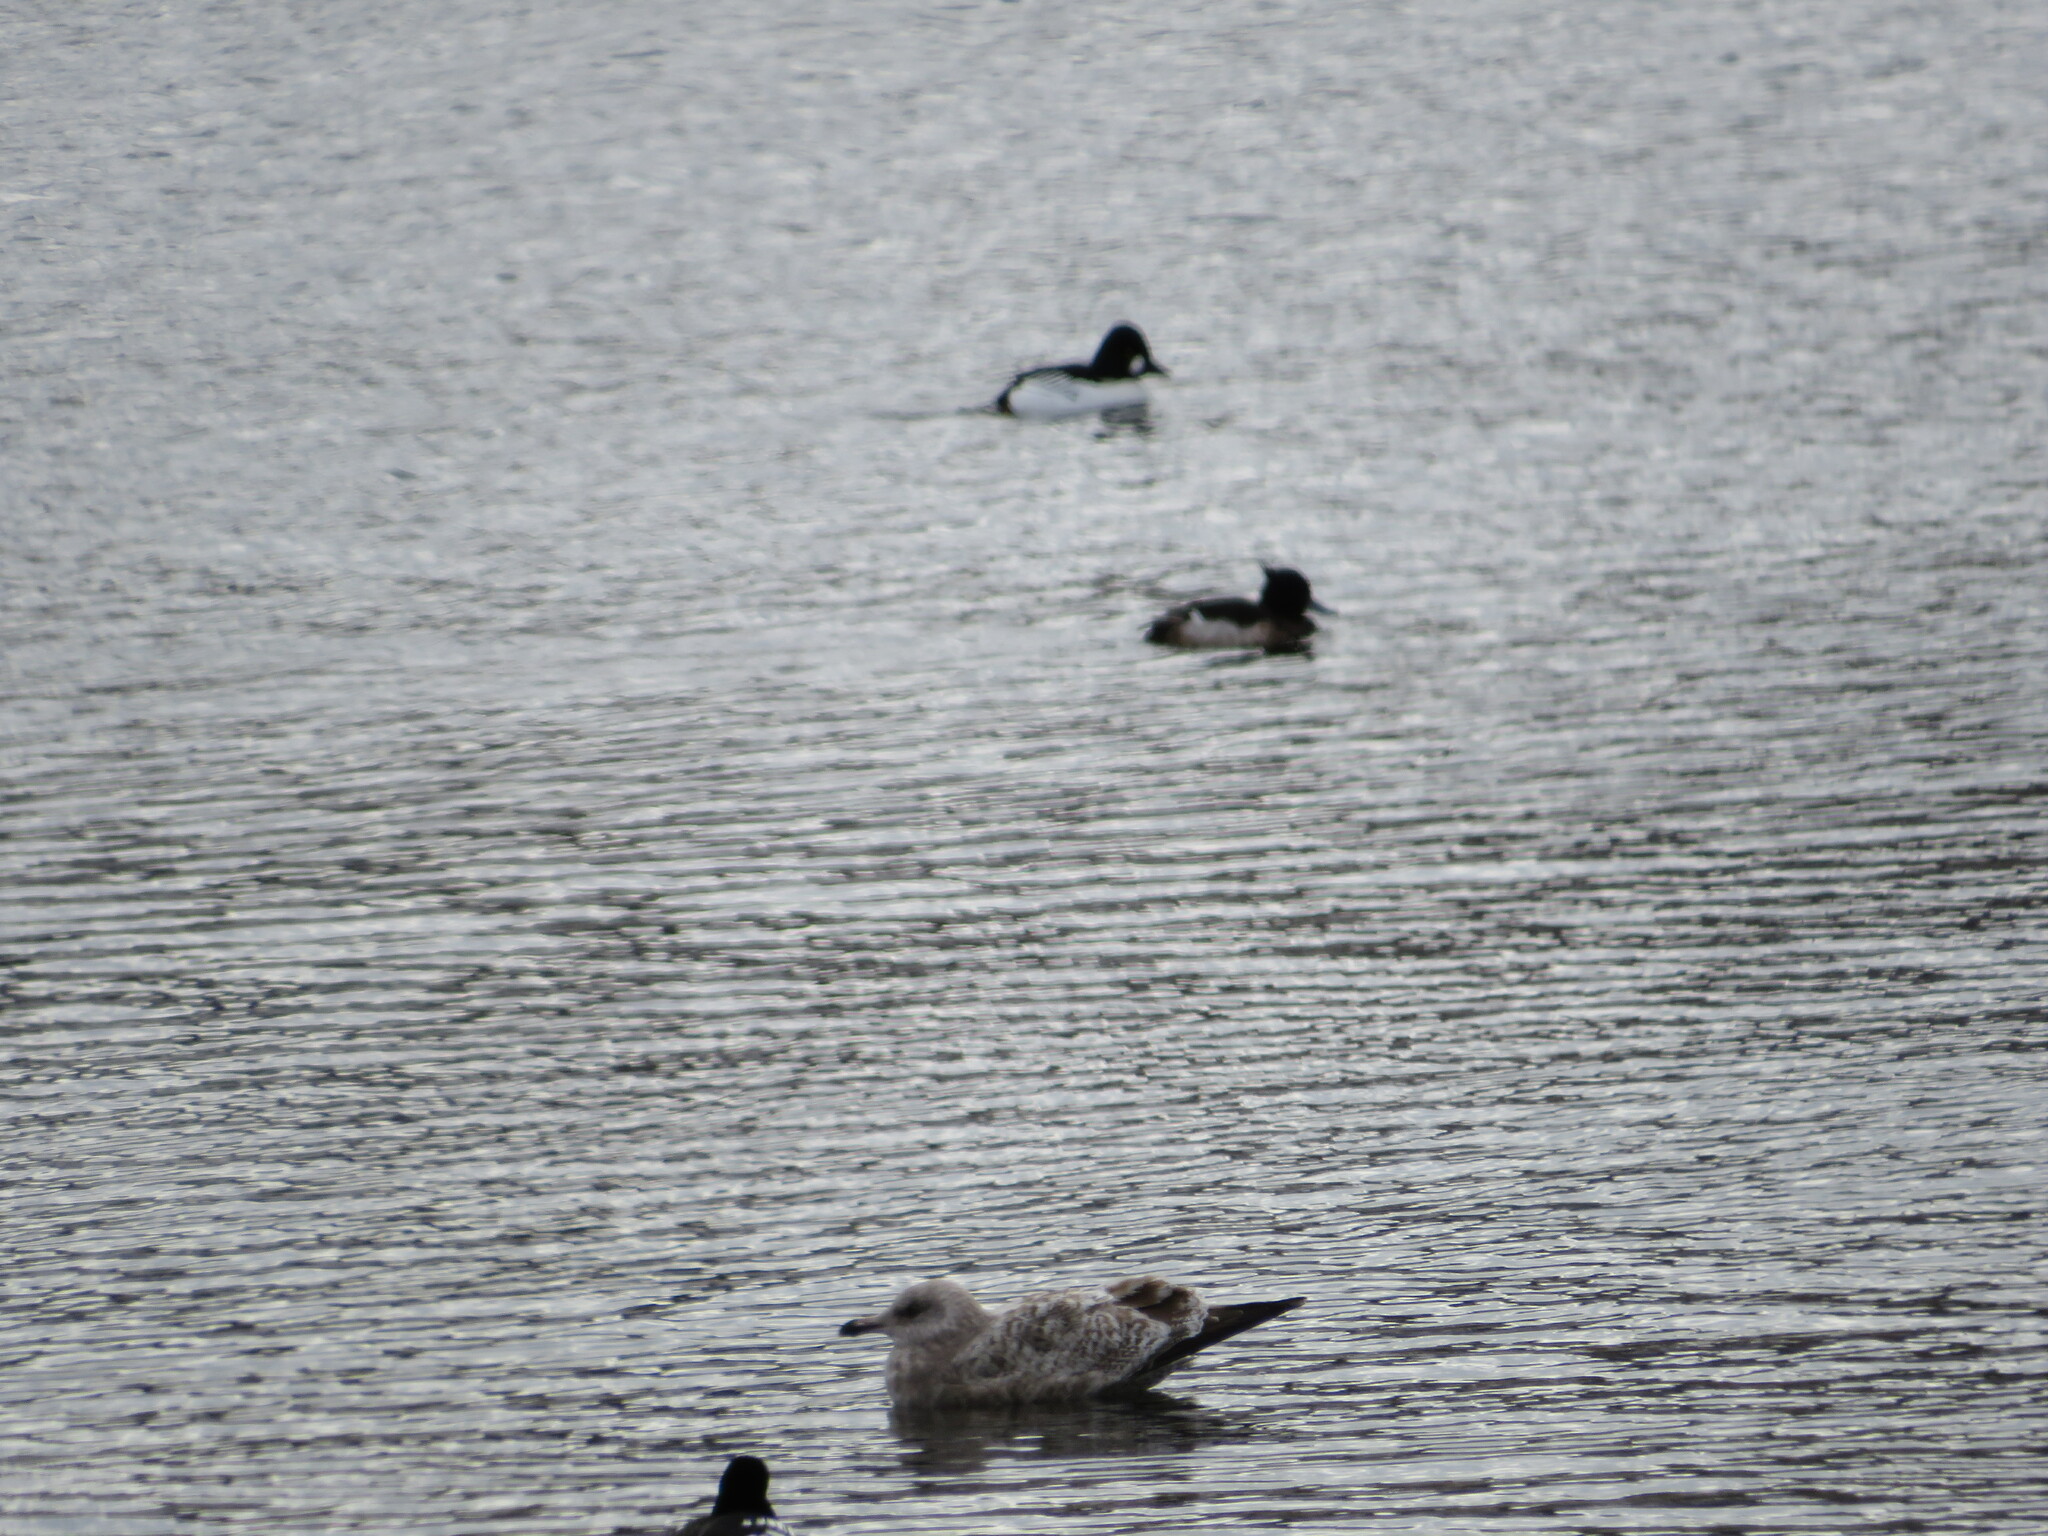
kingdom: Animalia
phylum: Chordata
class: Aves
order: Charadriiformes
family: Laridae
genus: Larus
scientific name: Larus argentatus
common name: Herring gull
